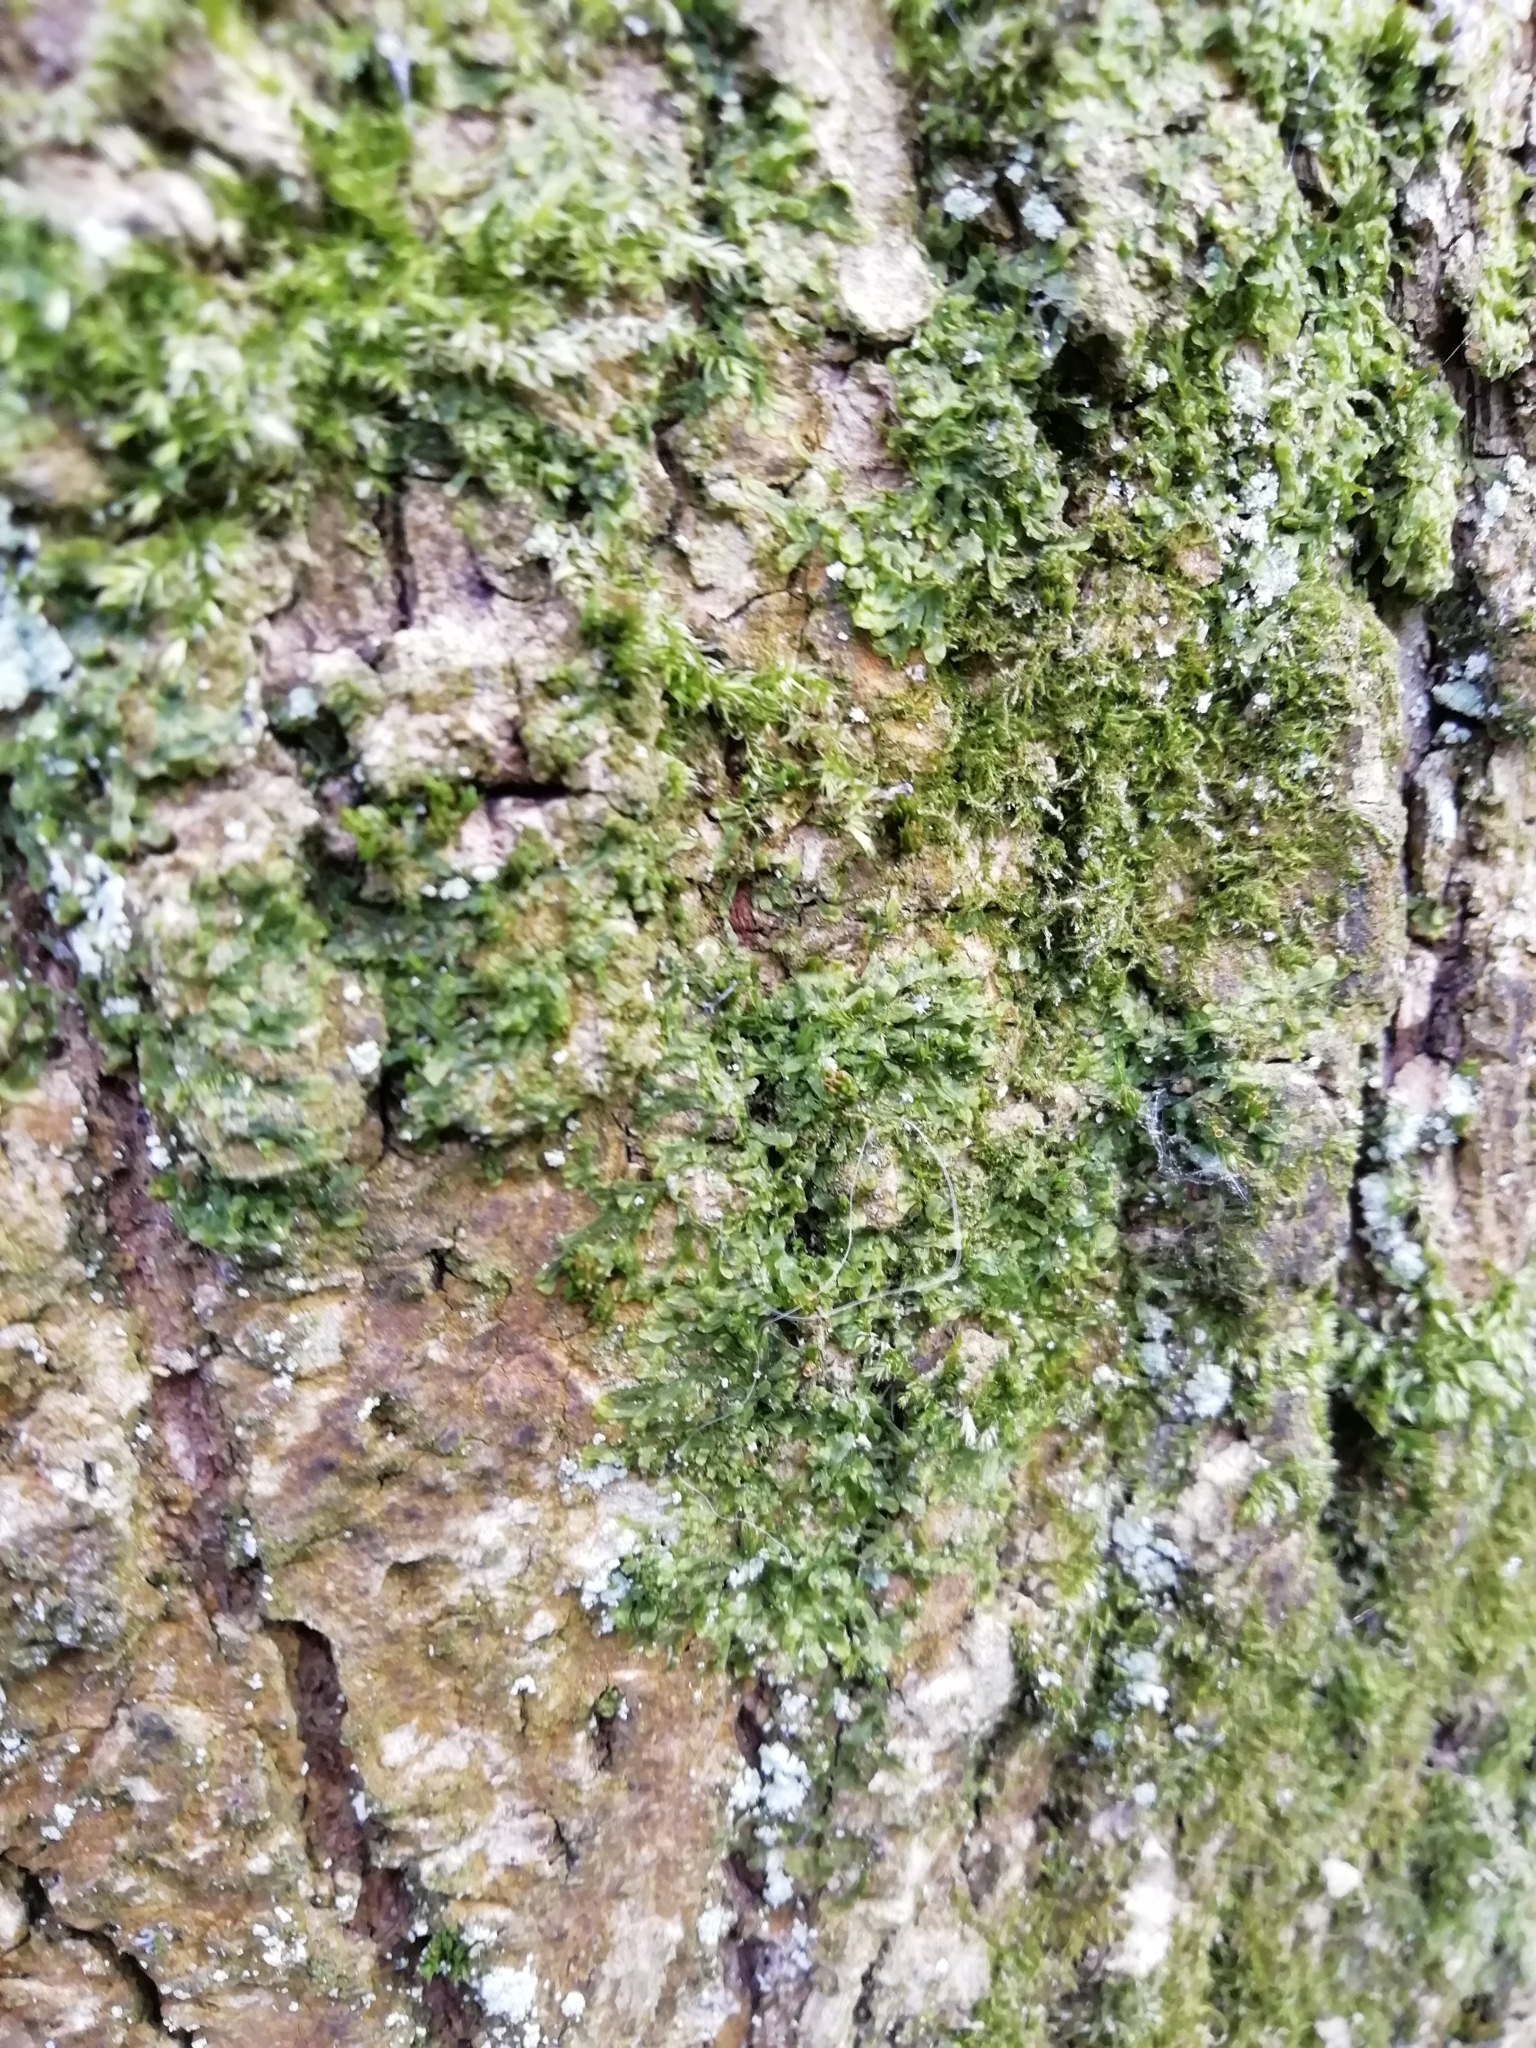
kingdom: Plantae
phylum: Marchantiophyta
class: Jungermanniopsida
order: Metzgeriales
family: Metzgeriaceae
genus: Metzgeria
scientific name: Metzgeria furcata
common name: Forked veilwort
